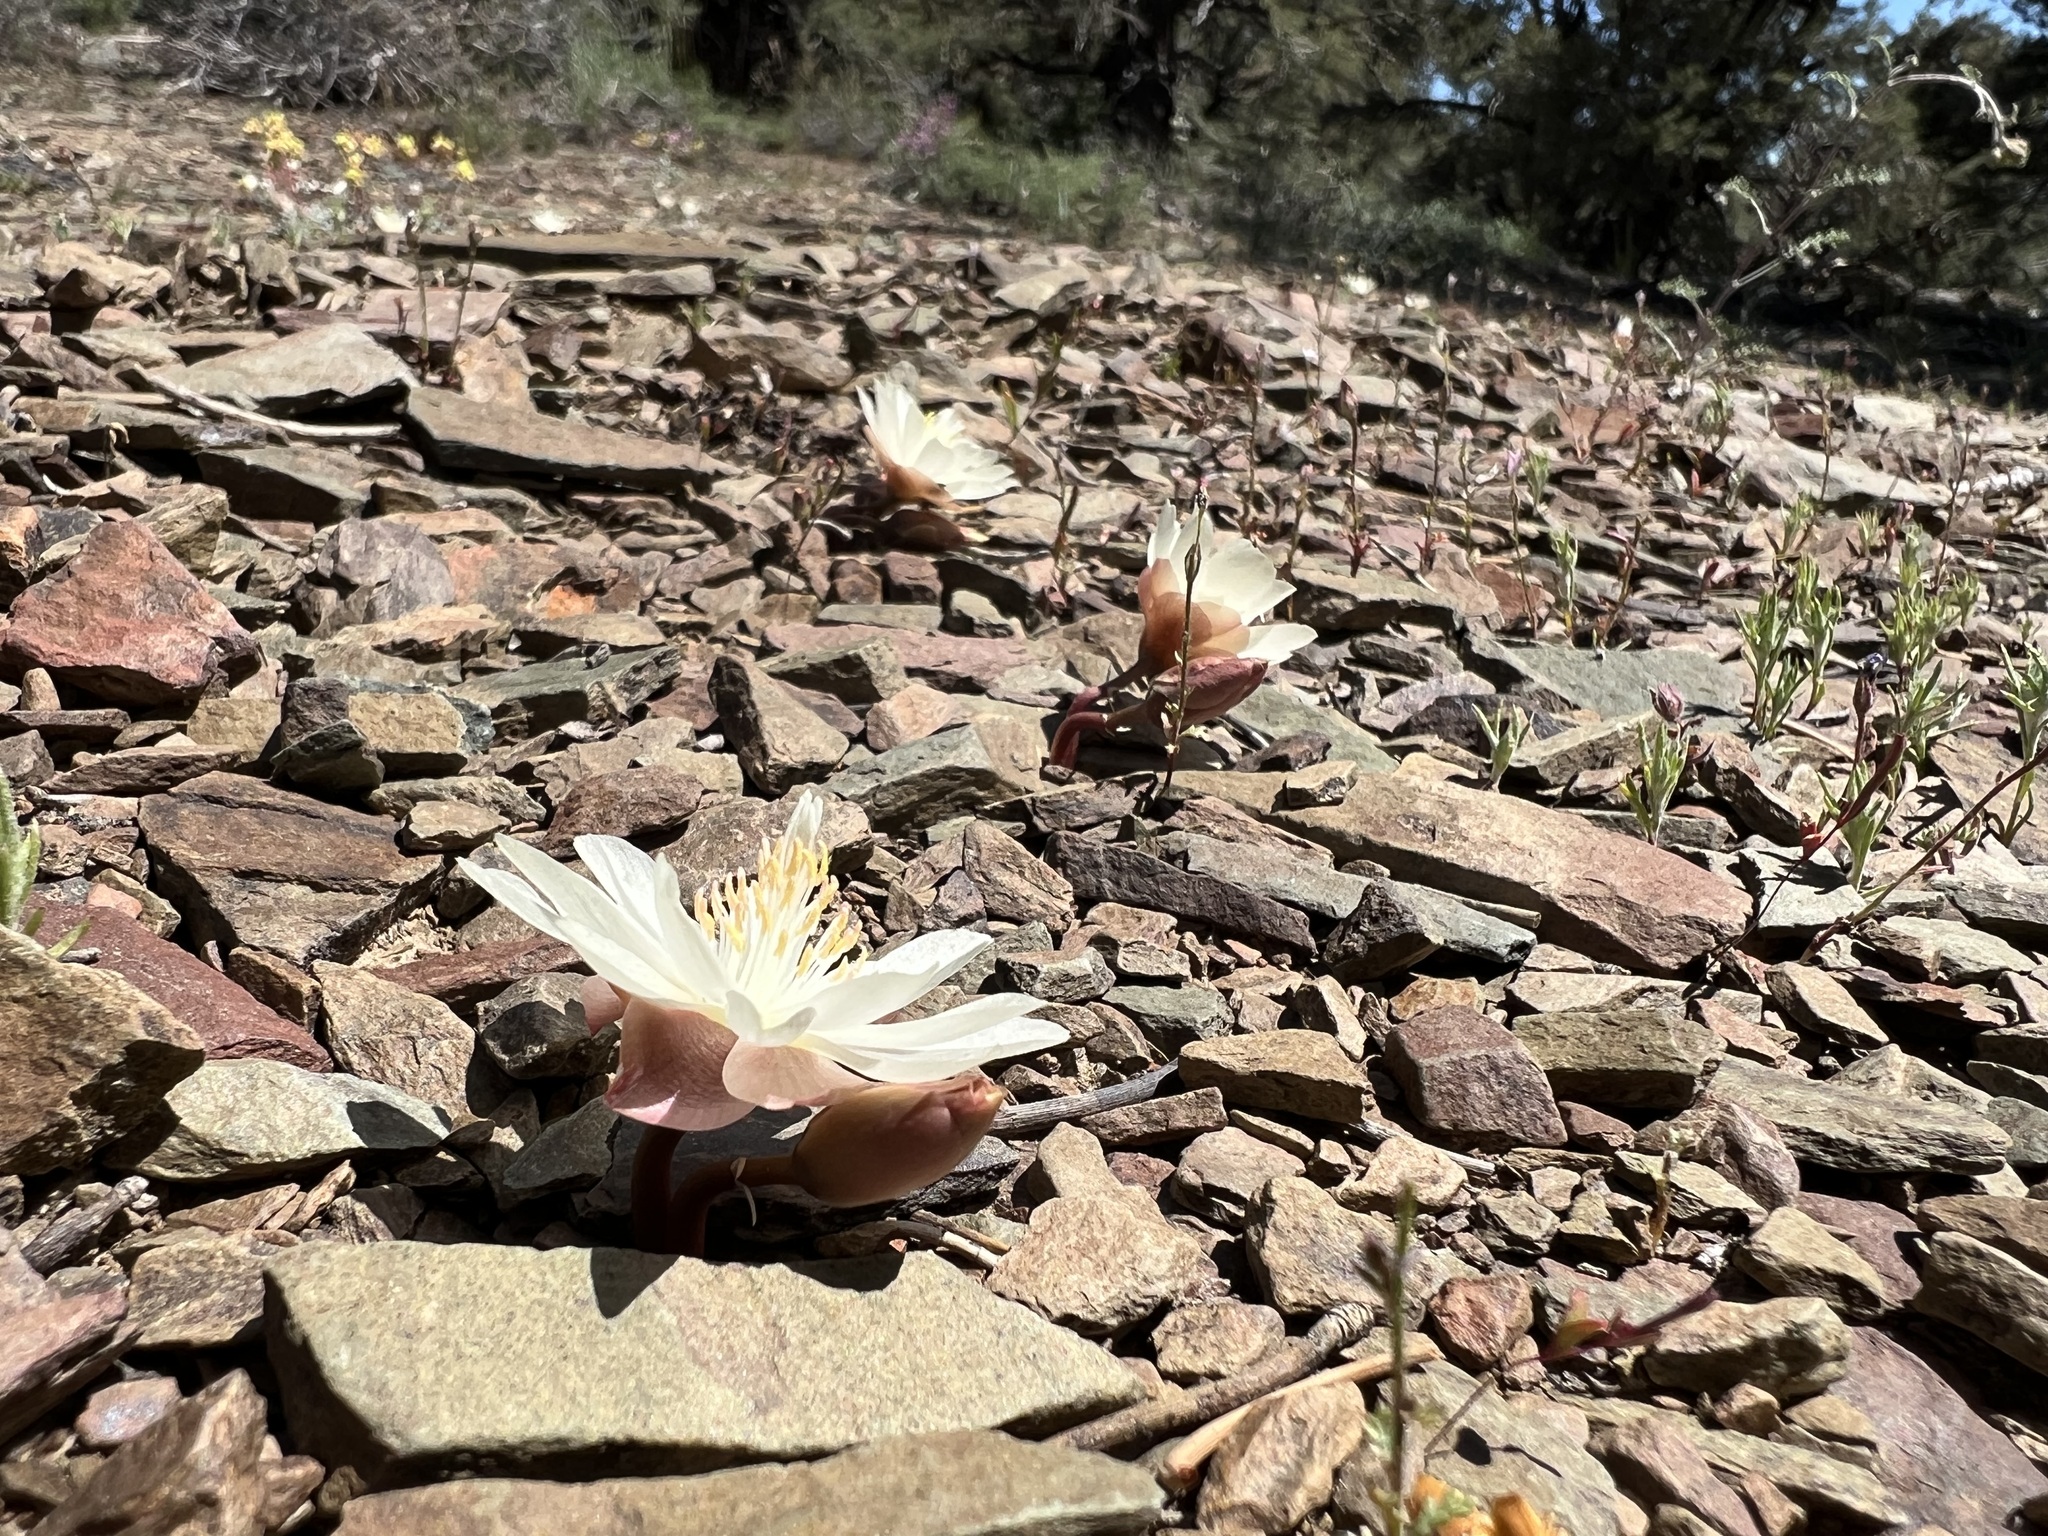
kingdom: Plantae
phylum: Tracheophyta
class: Magnoliopsida
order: Caryophyllales
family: Montiaceae
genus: Lewisia
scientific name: Lewisia rediviva
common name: Bitter-root
